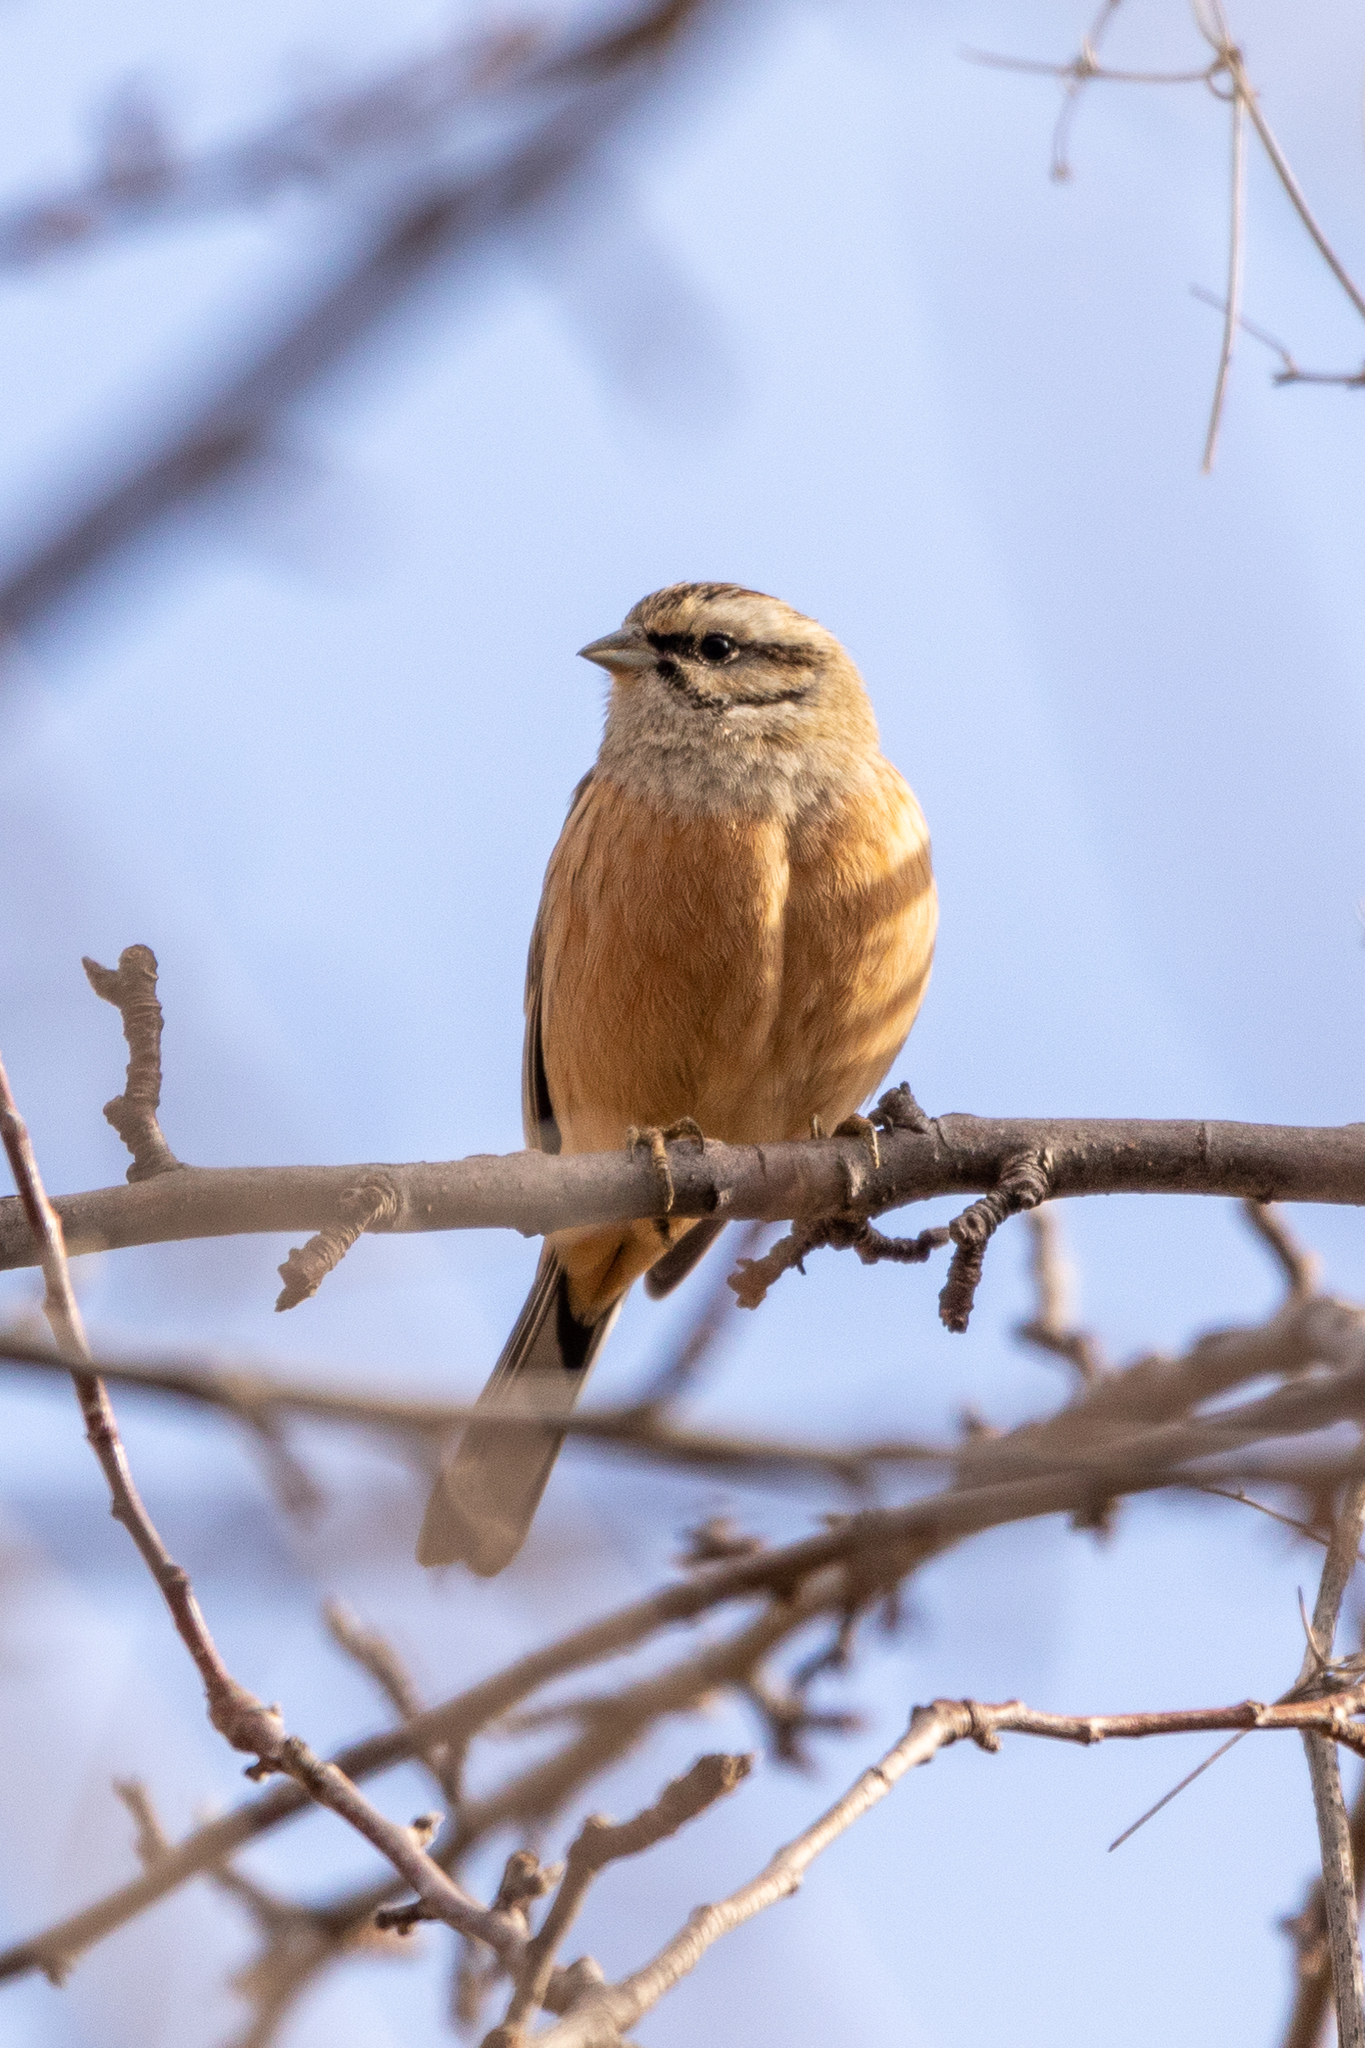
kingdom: Animalia
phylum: Chordata
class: Aves
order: Passeriformes
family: Emberizidae
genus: Emberiza
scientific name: Emberiza cia
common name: Rock bunting
